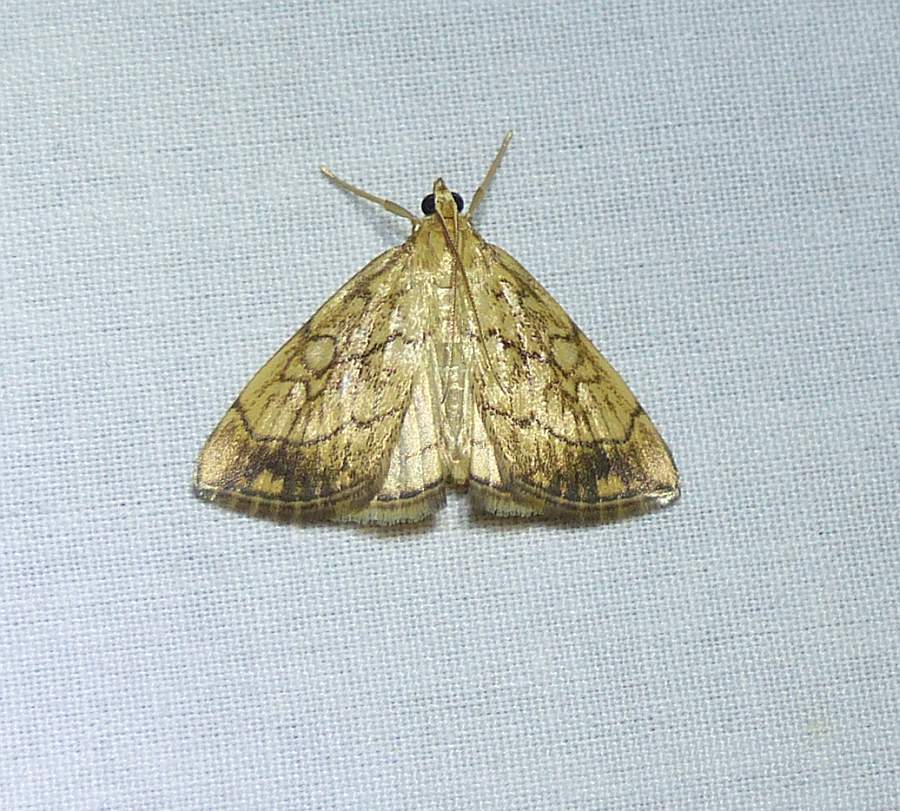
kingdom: Animalia
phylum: Arthropoda
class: Insecta
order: Lepidoptera
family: Crambidae
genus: Evergestis
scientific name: Evergestis pallidata
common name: Chequered pearl
